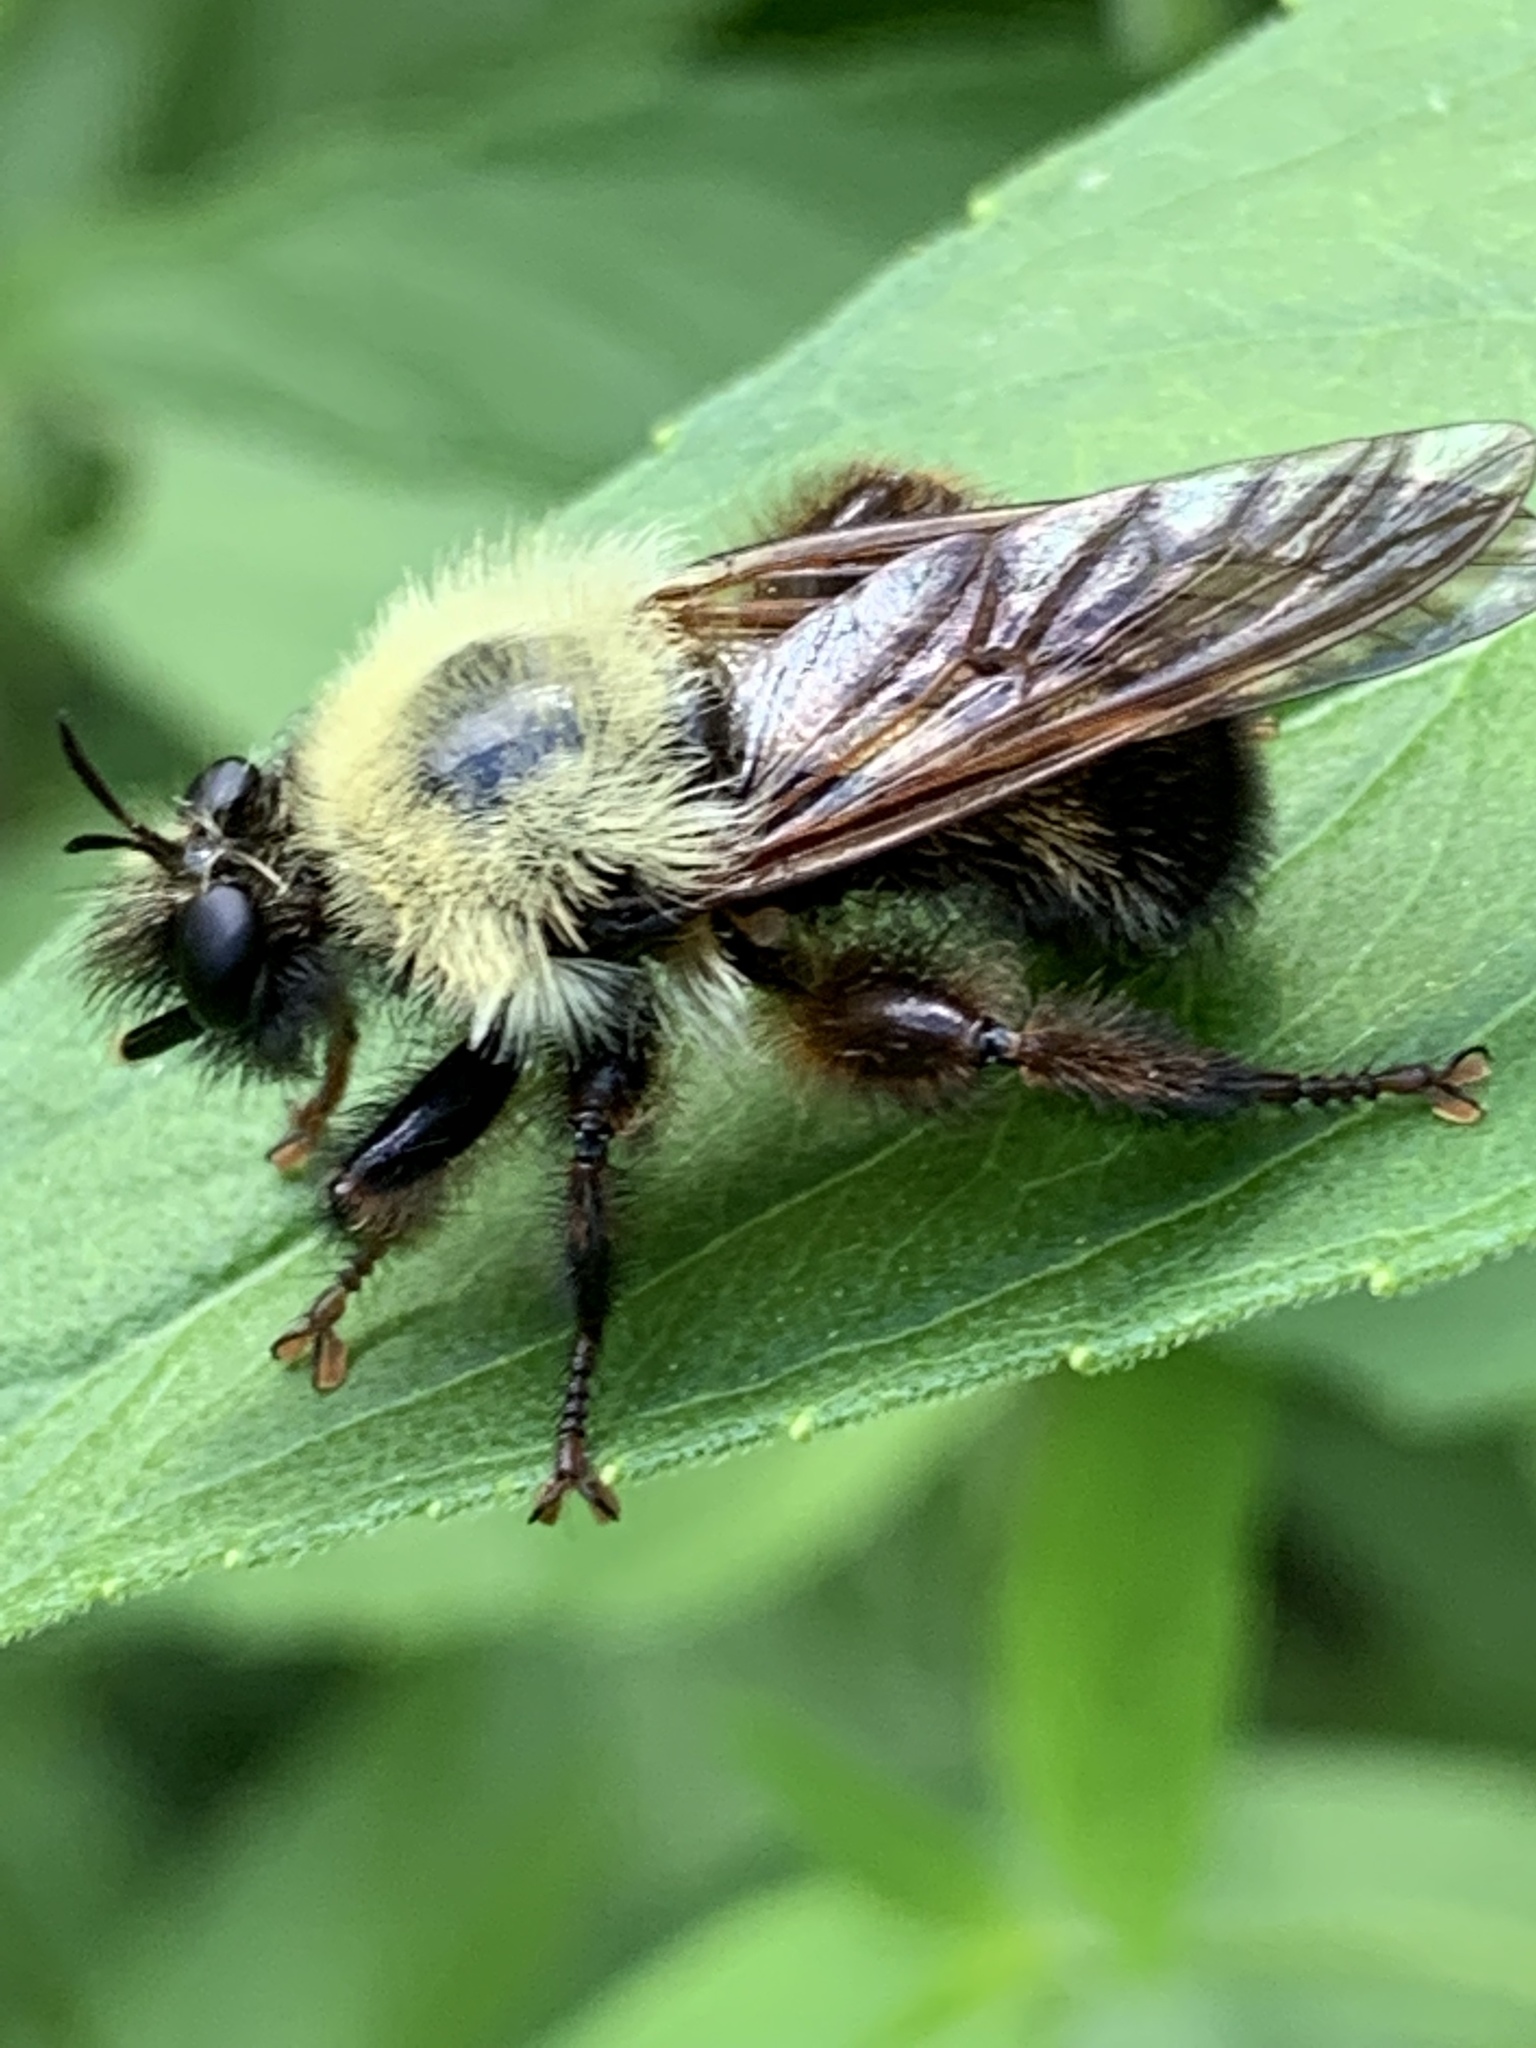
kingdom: Animalia
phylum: Arthropoda
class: Insecta
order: Diptera
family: Asilidae
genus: Laphria
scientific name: Laphria thoracica
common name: Bumble bee mimic robber fly
